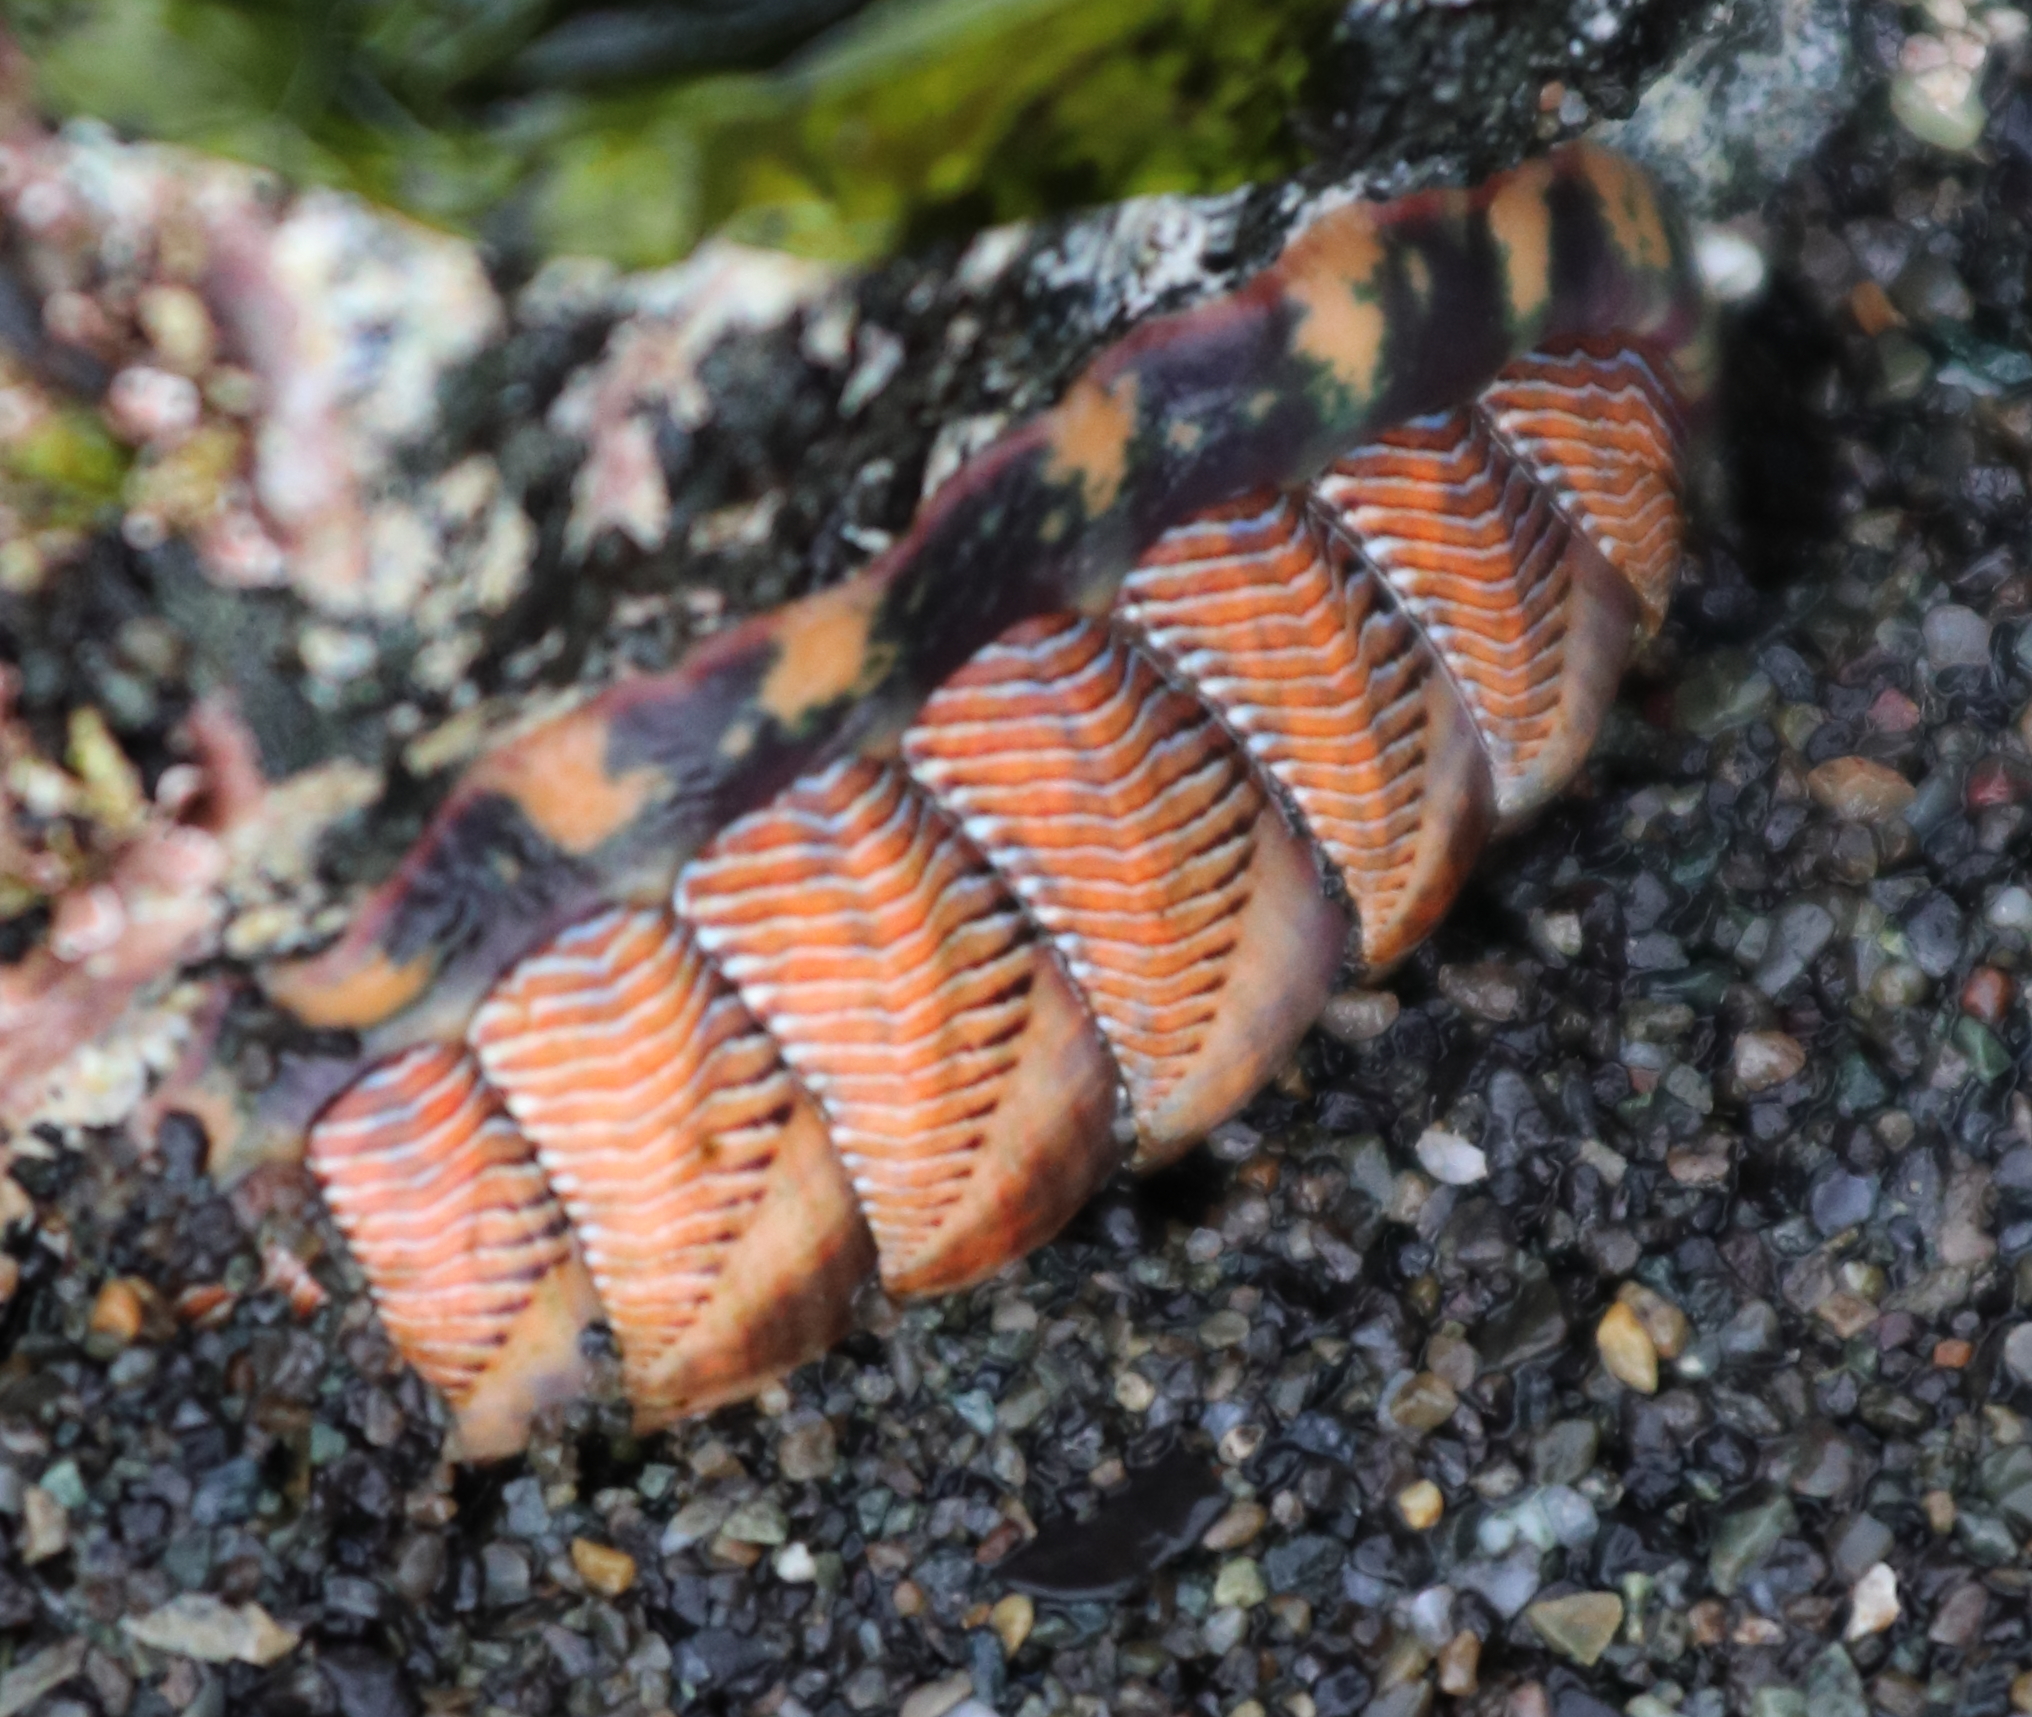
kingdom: Animalia
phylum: Mollusca
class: Polyplacophora
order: Chitonida
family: Tonicellidae
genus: Tonicella
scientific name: Tonicella lineata
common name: Lined chiton
